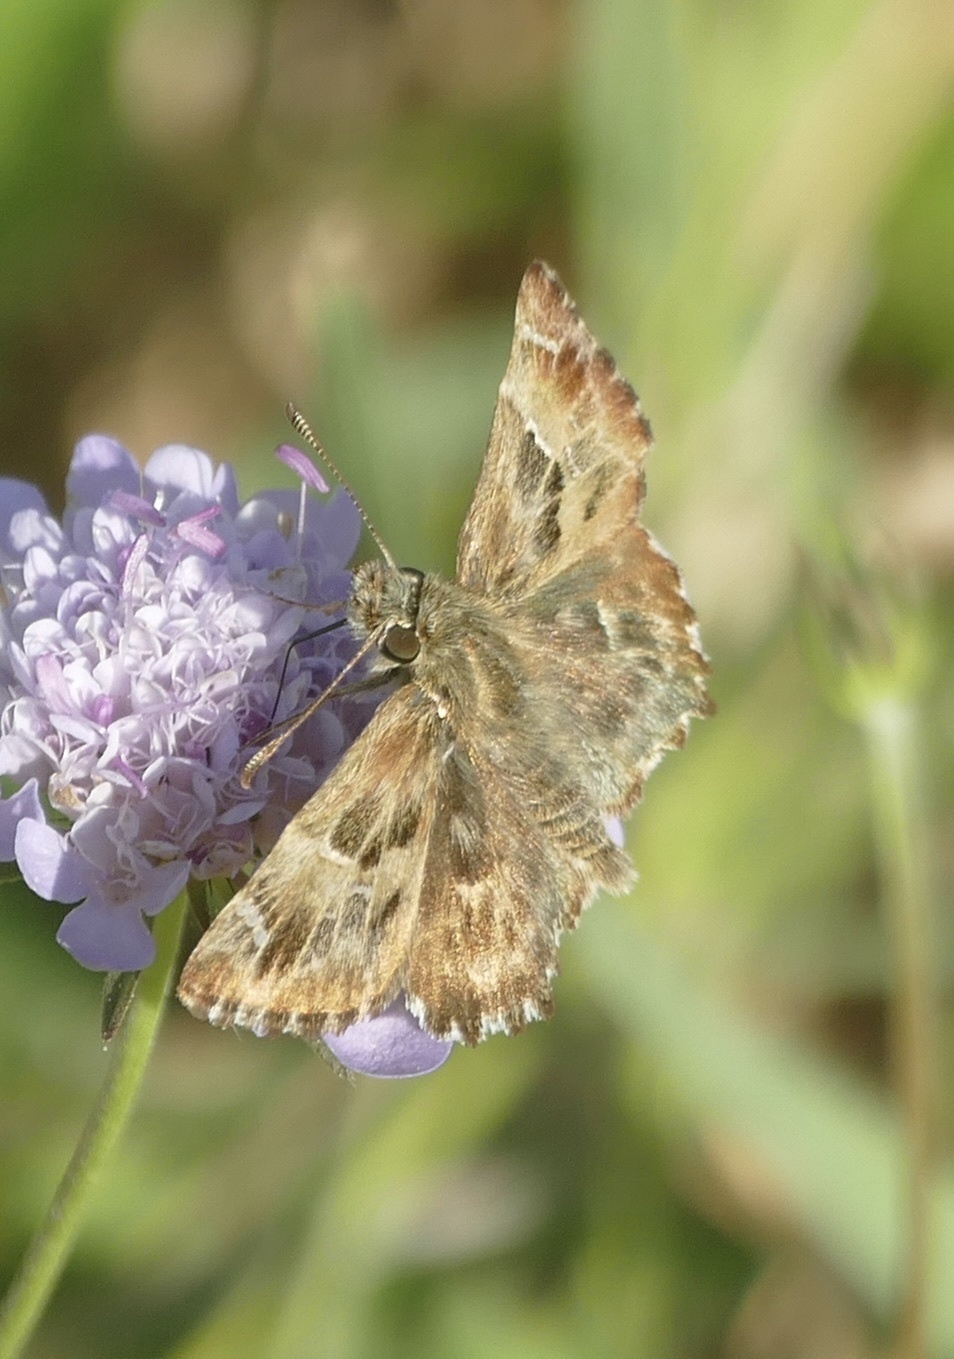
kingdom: Animalia
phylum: Arthropoda
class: Insecta
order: Lepidoptera
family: Hesperiidae
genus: Carcharodus
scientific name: Carcharodus alceae
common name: Mallow skipper
